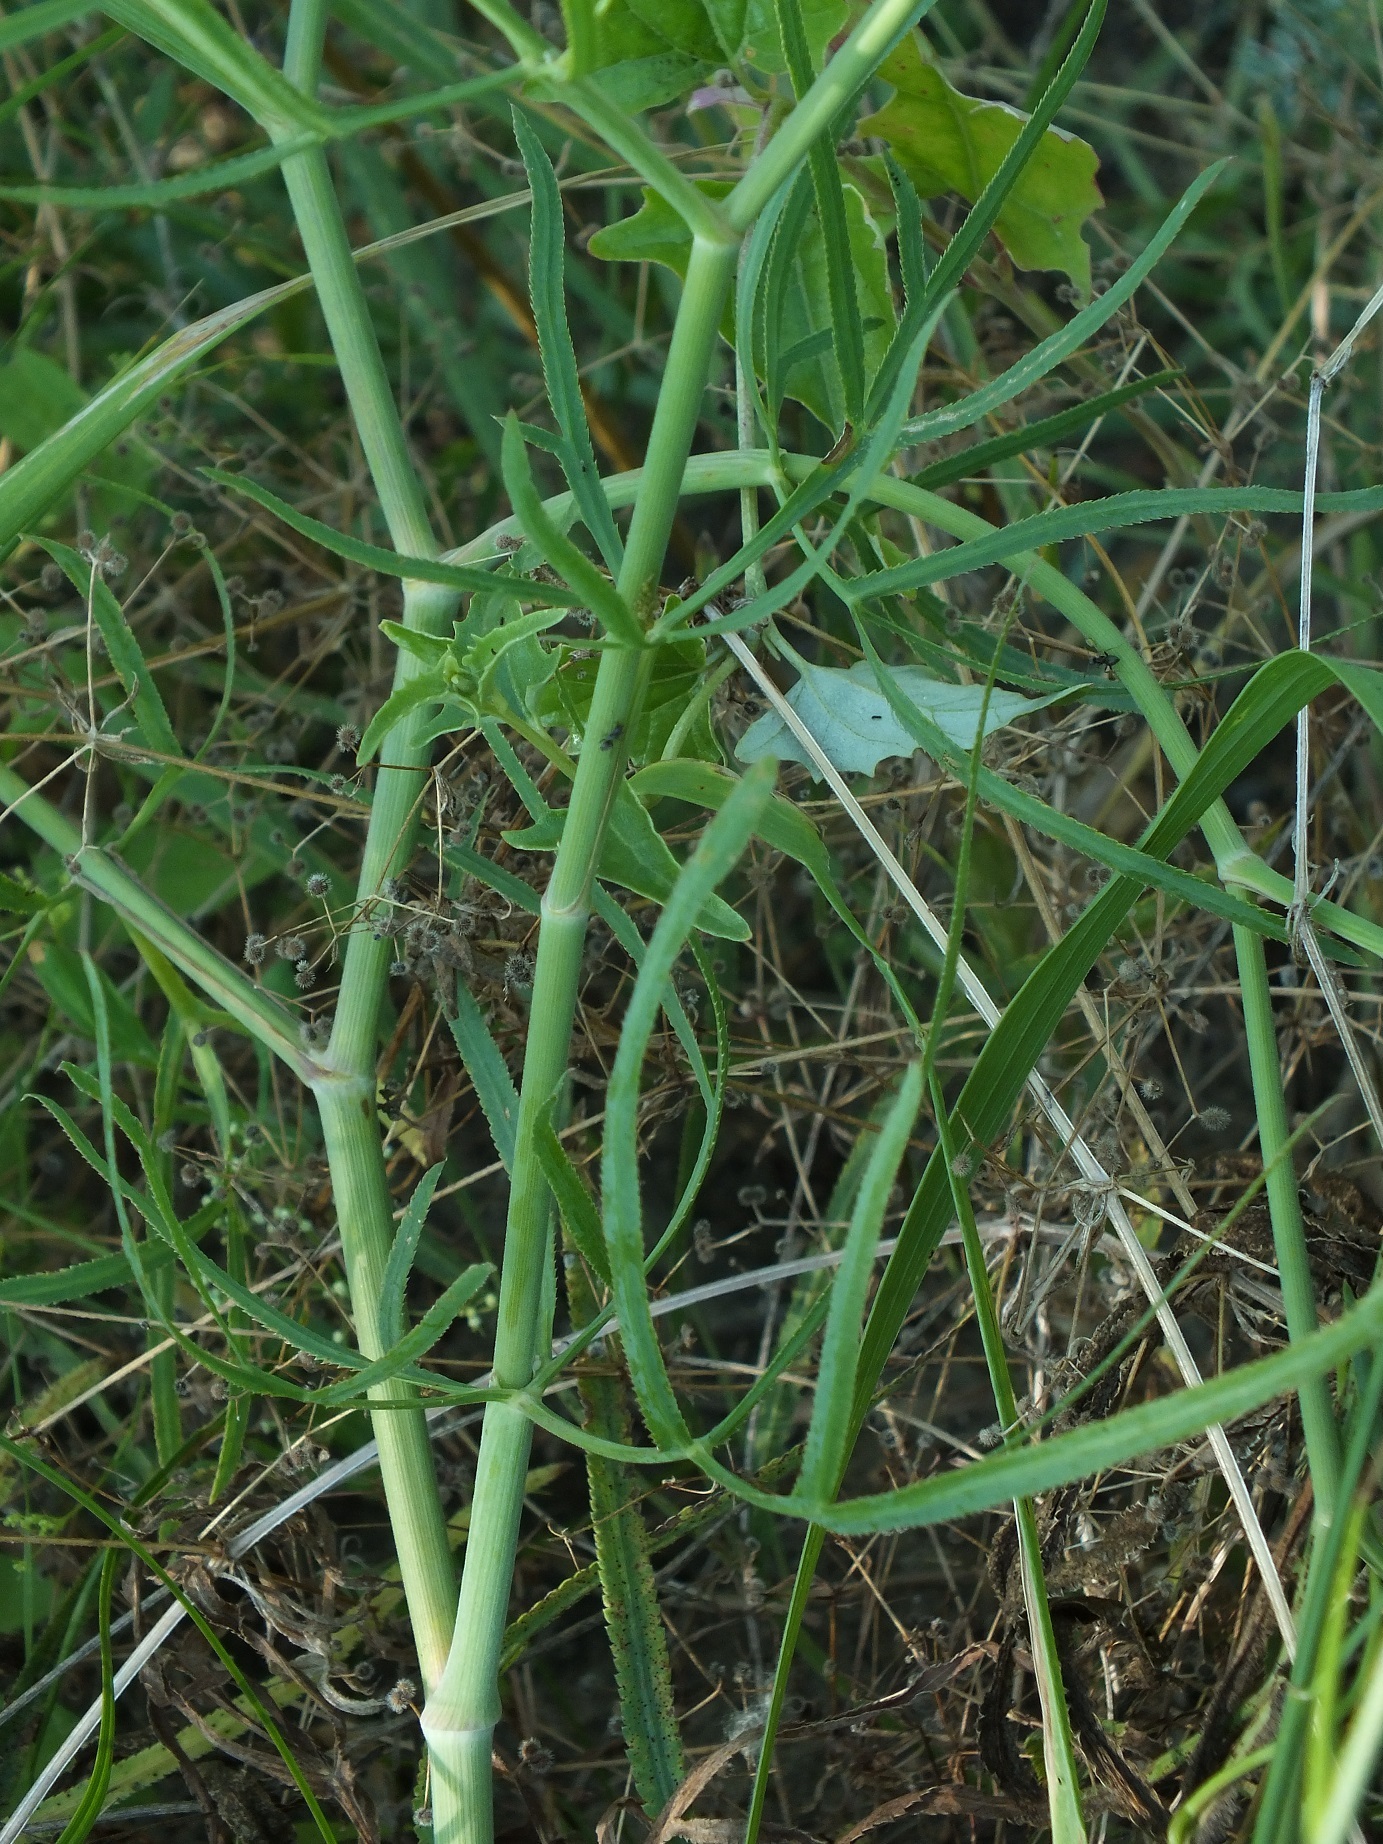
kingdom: Plantae
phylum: Tracheophyta
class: Magnoliopsida
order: Apiales
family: Apiaceae
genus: Falcaria
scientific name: Falcaria vulgaris
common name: Longleaf
